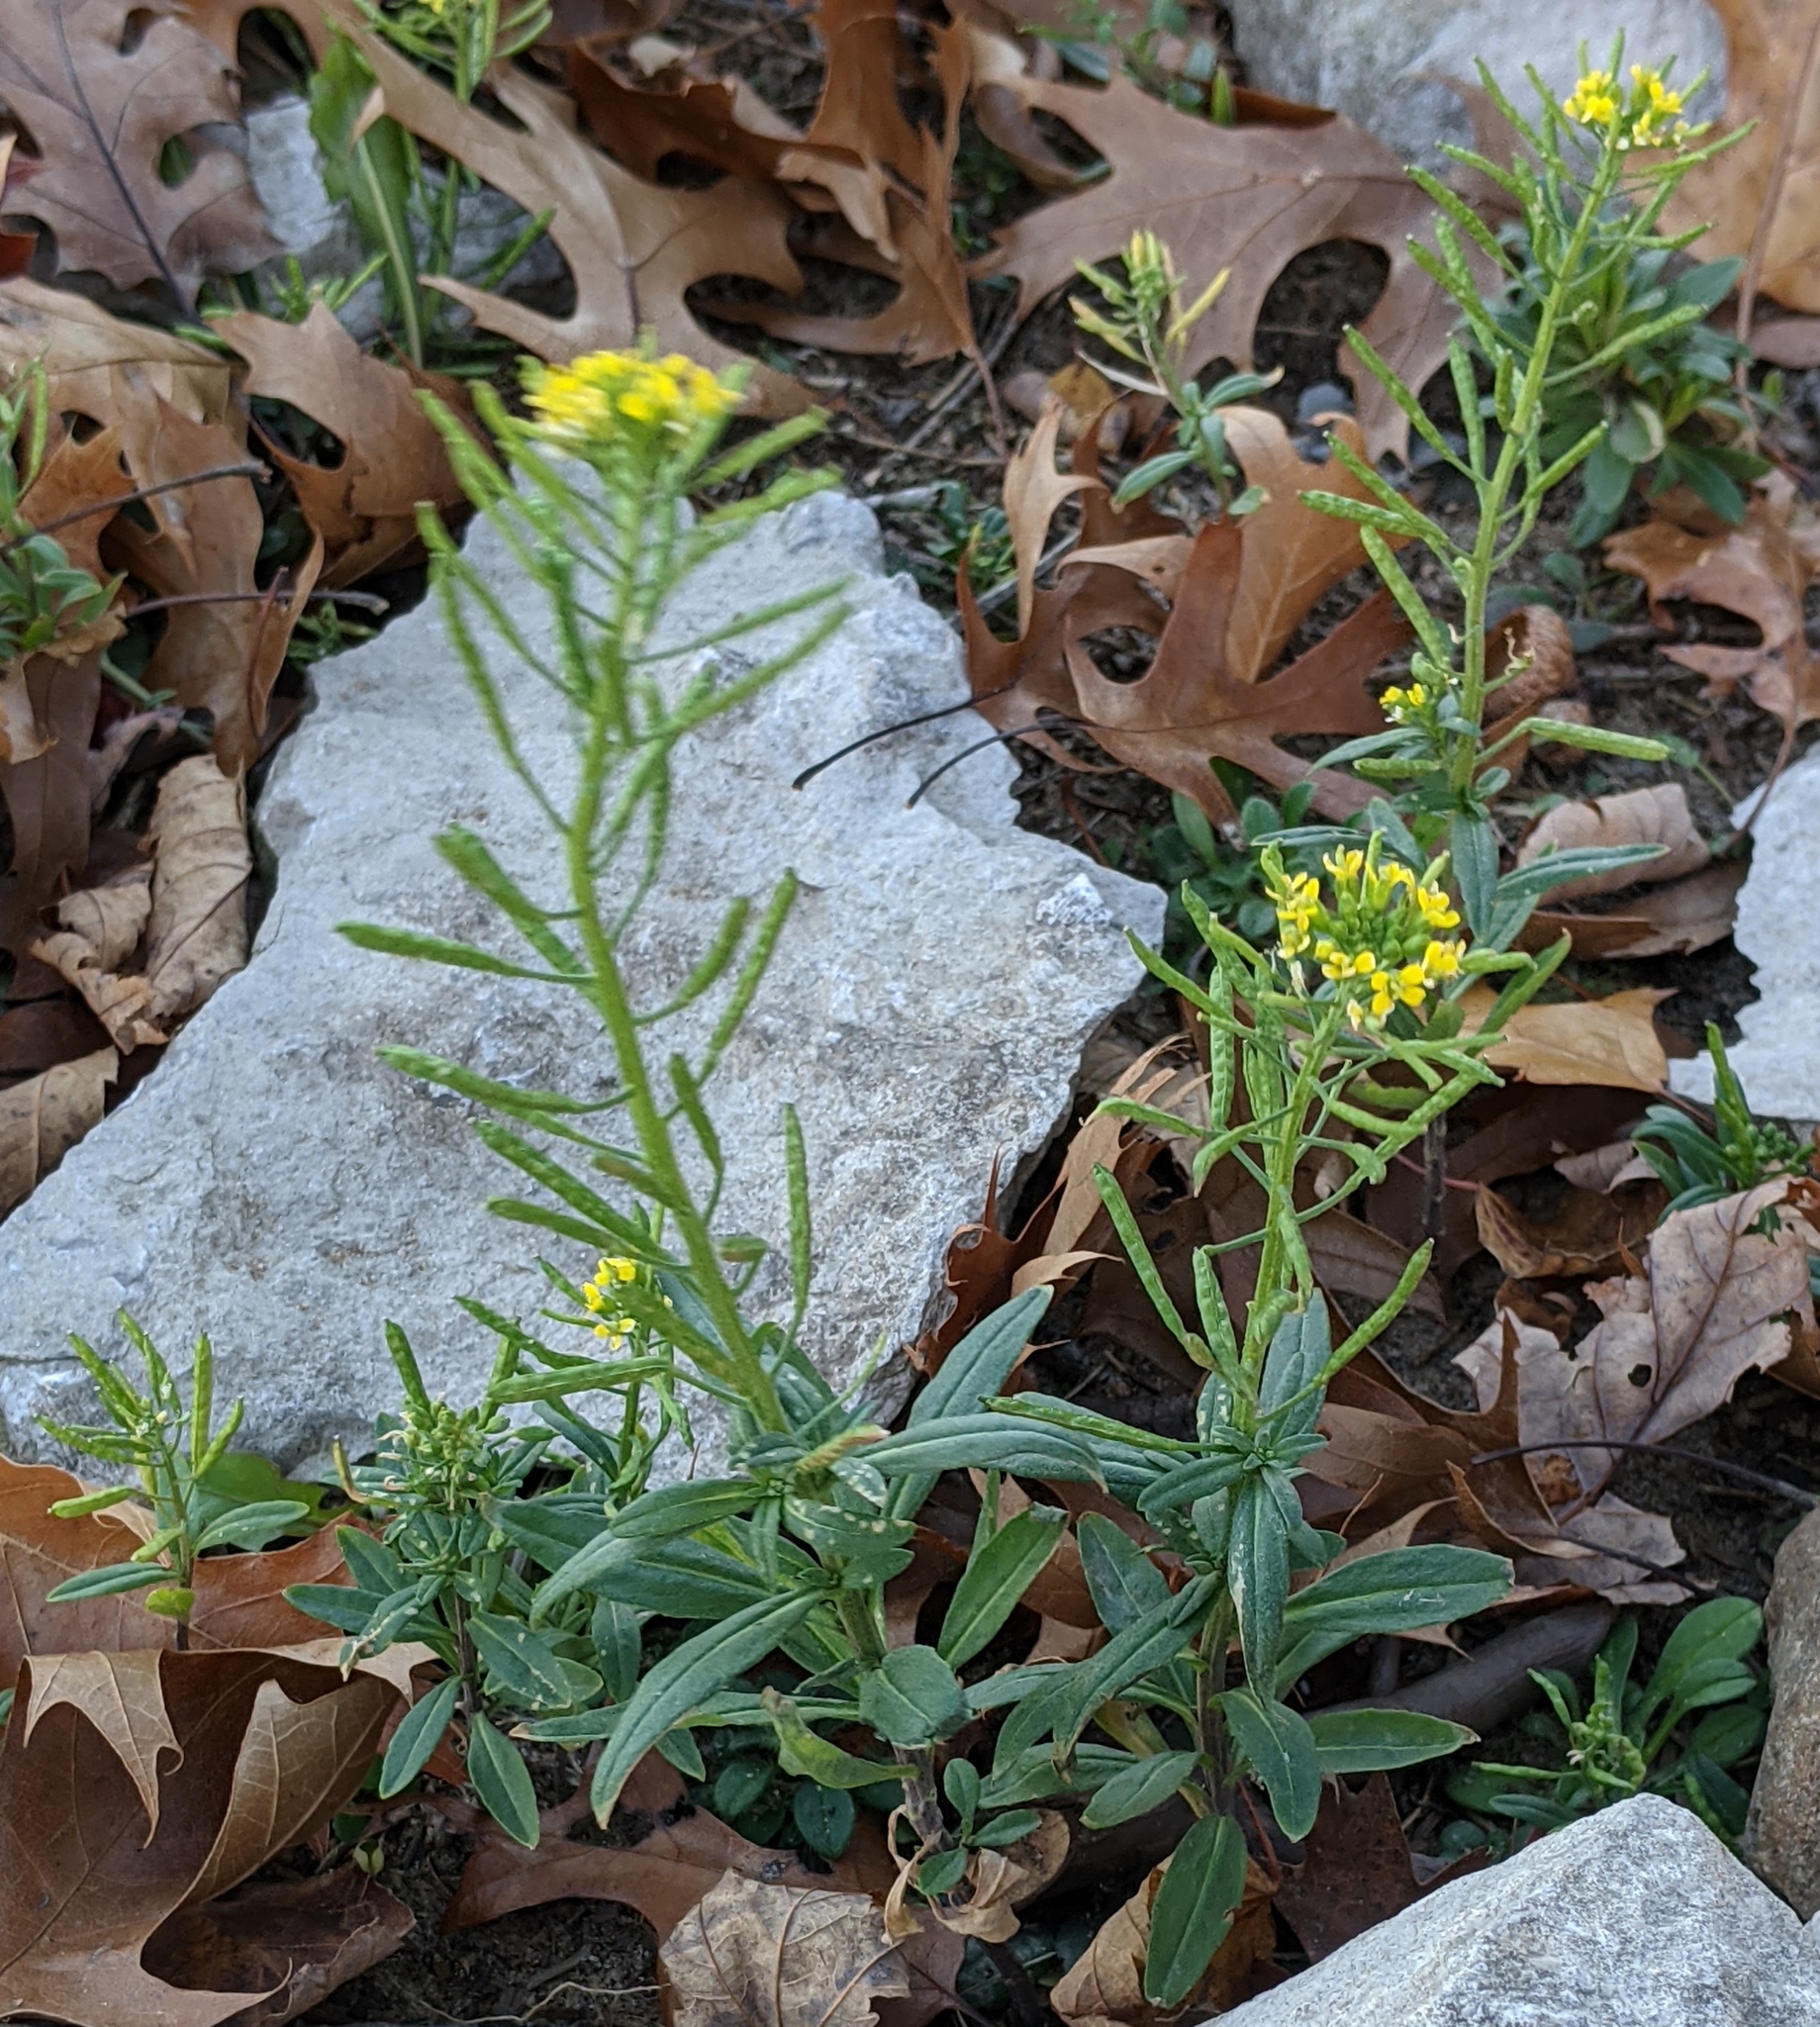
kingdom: Plantae
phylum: Tracheophyta
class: Magnoliopsida
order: Brassicales
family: Brassicaceae
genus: Erysimum
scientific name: Erysimum cheiranthoides
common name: Treacle mustard
